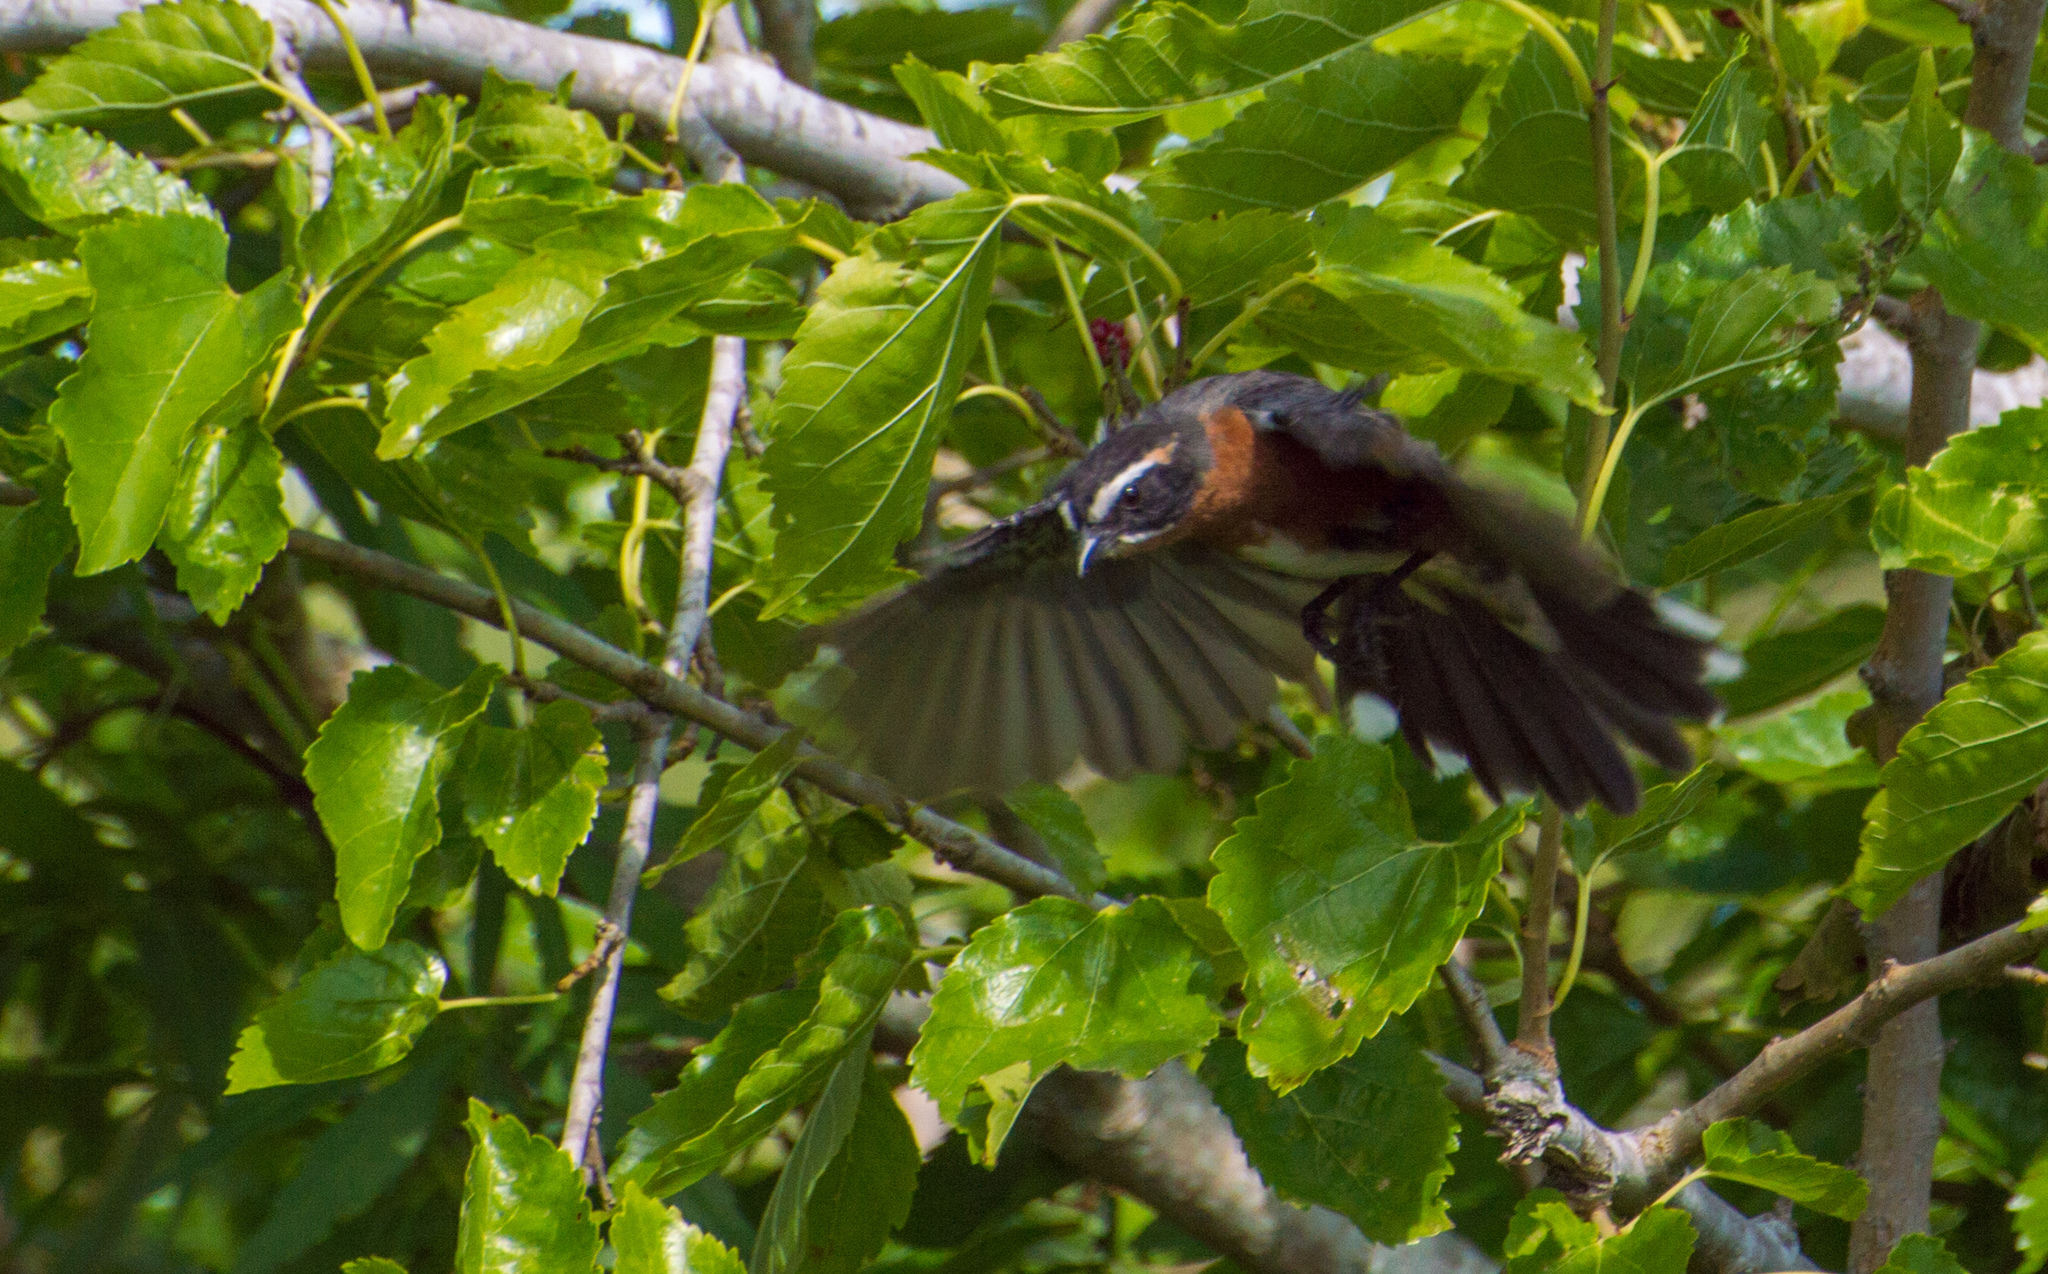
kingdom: Animalia
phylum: Chordata
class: Aves
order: Passeriformes
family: Thraupidae
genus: Poospiza
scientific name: Poospiza nigrorufa
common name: Black-and-rufous warbling finch
